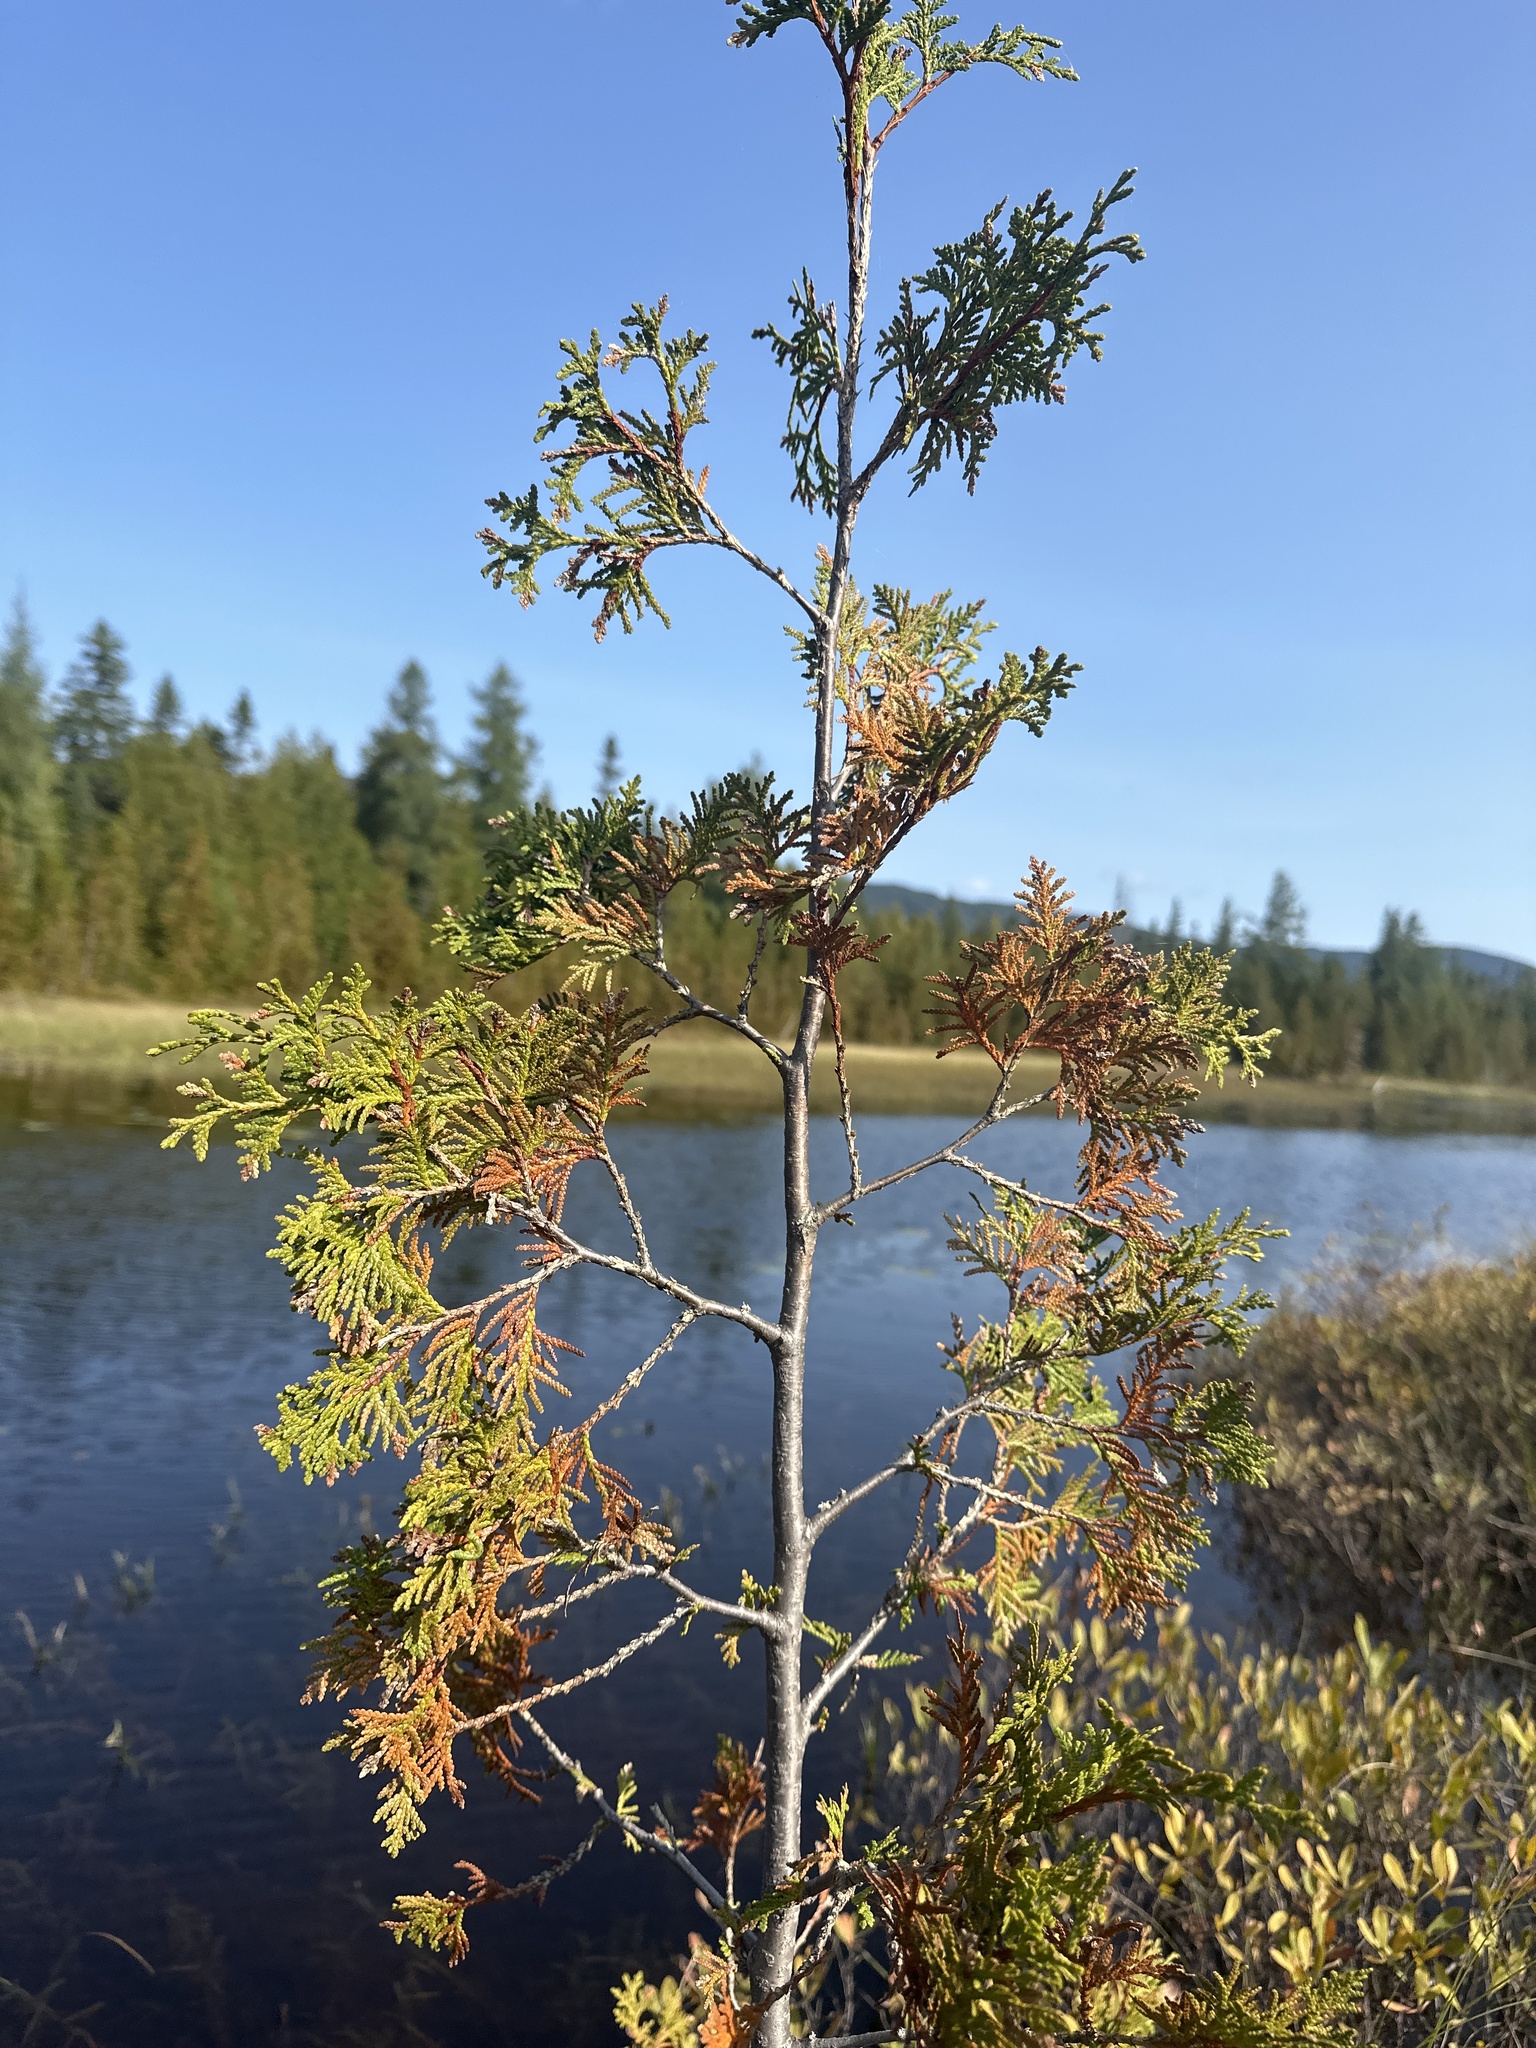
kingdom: Plantae
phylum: Tracheophyta
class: Pinopsida
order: Pinales
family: Cupressaceae
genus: Thuja
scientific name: Thuja occidentalis
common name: Northern white-cedar
